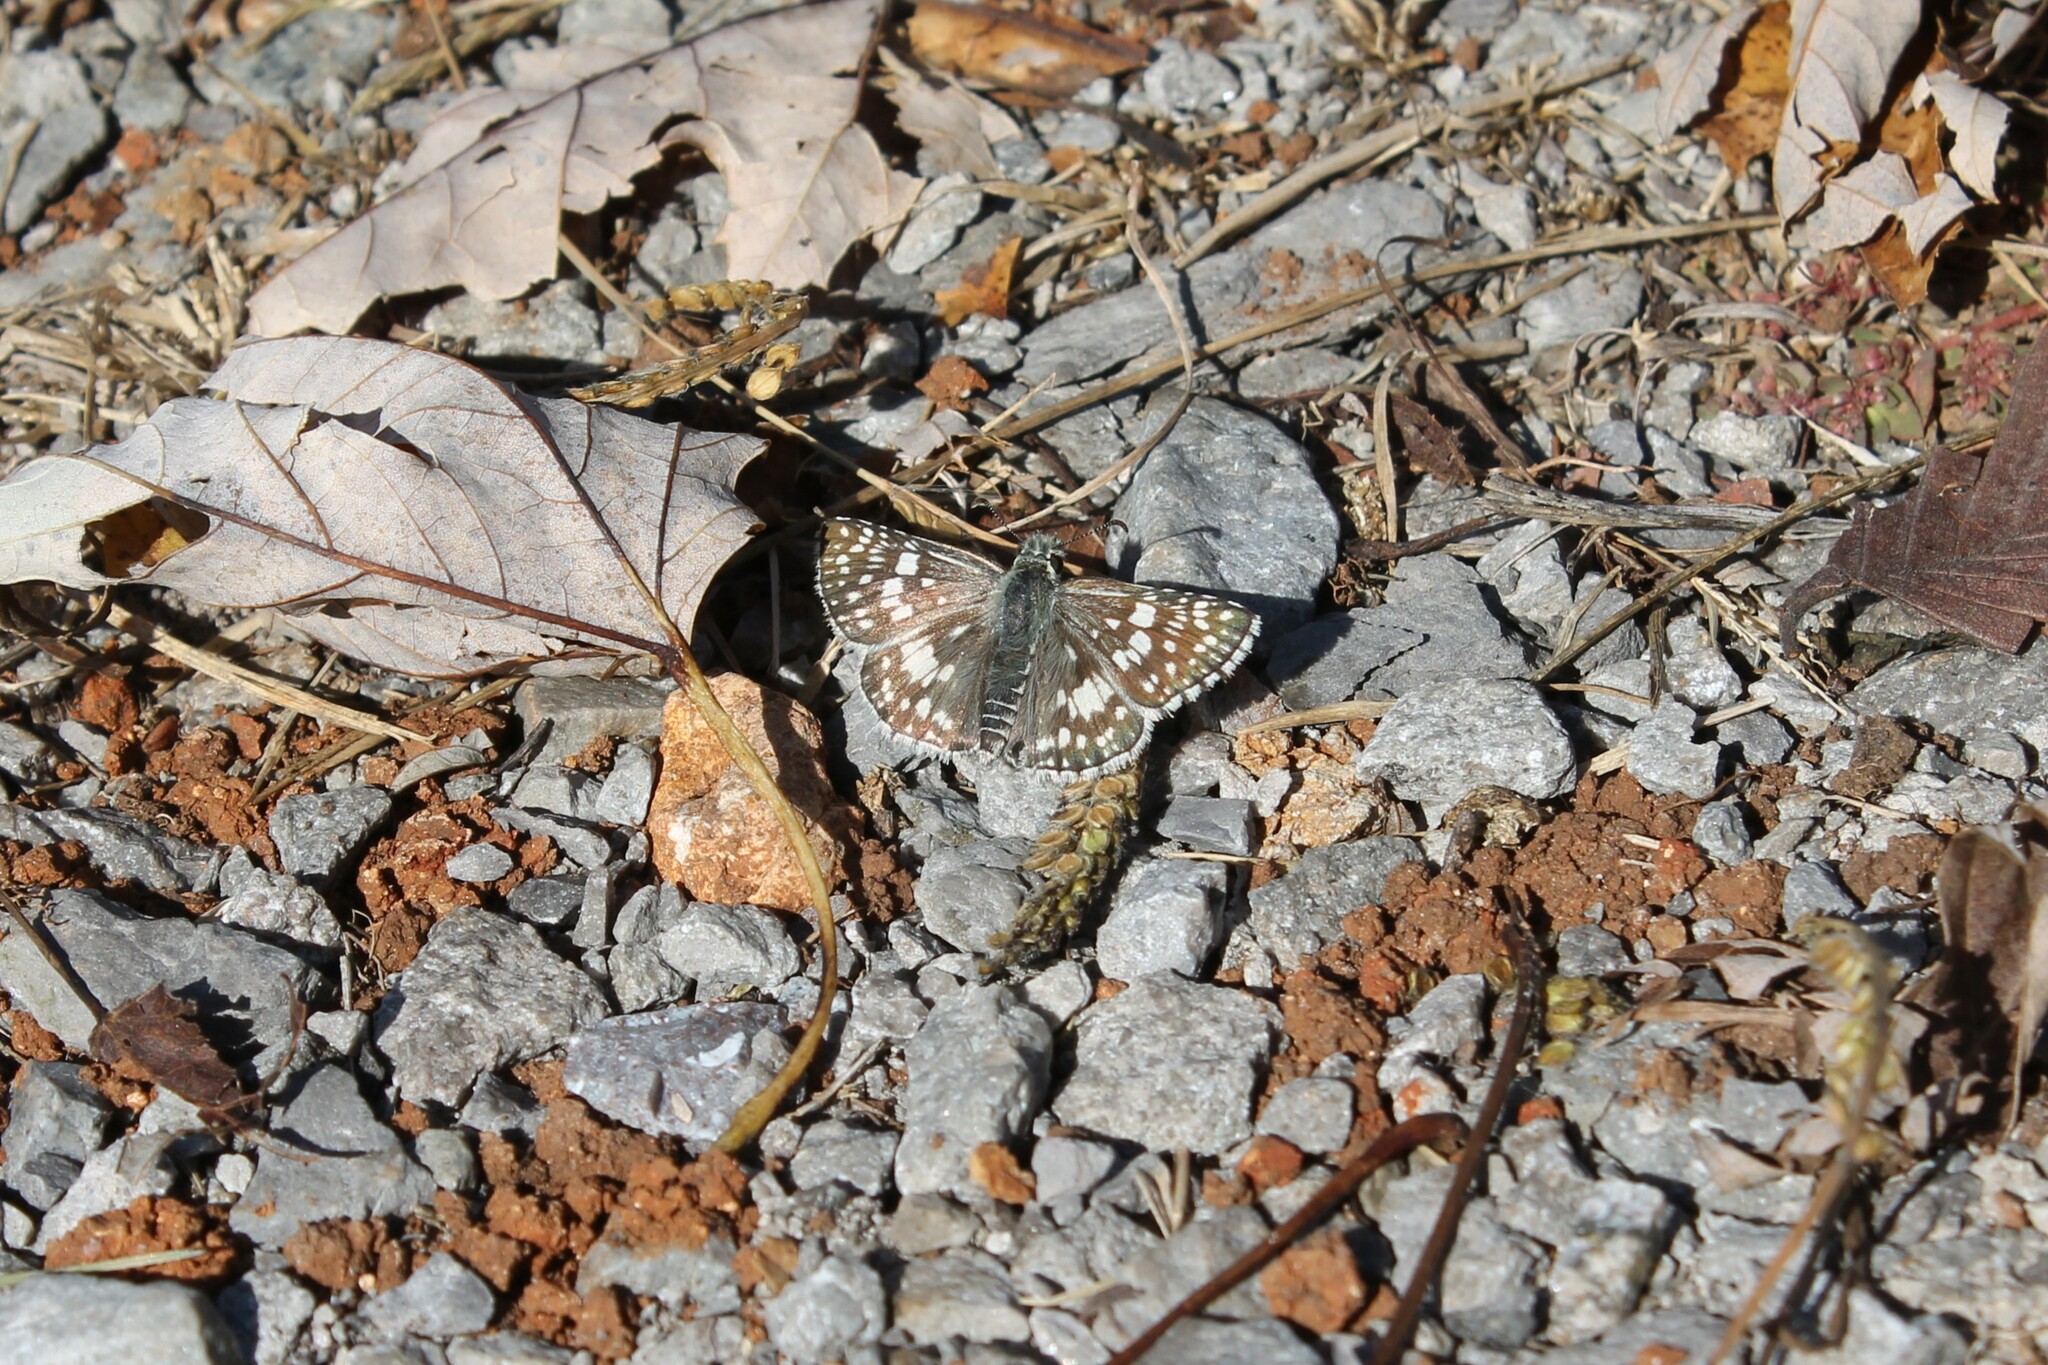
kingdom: Animalia
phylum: Arthropoda
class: Insecta
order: Lepidoptera
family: Hesperiidae
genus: Burnsius
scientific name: Burnsius communis
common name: Common checkered-skipper
